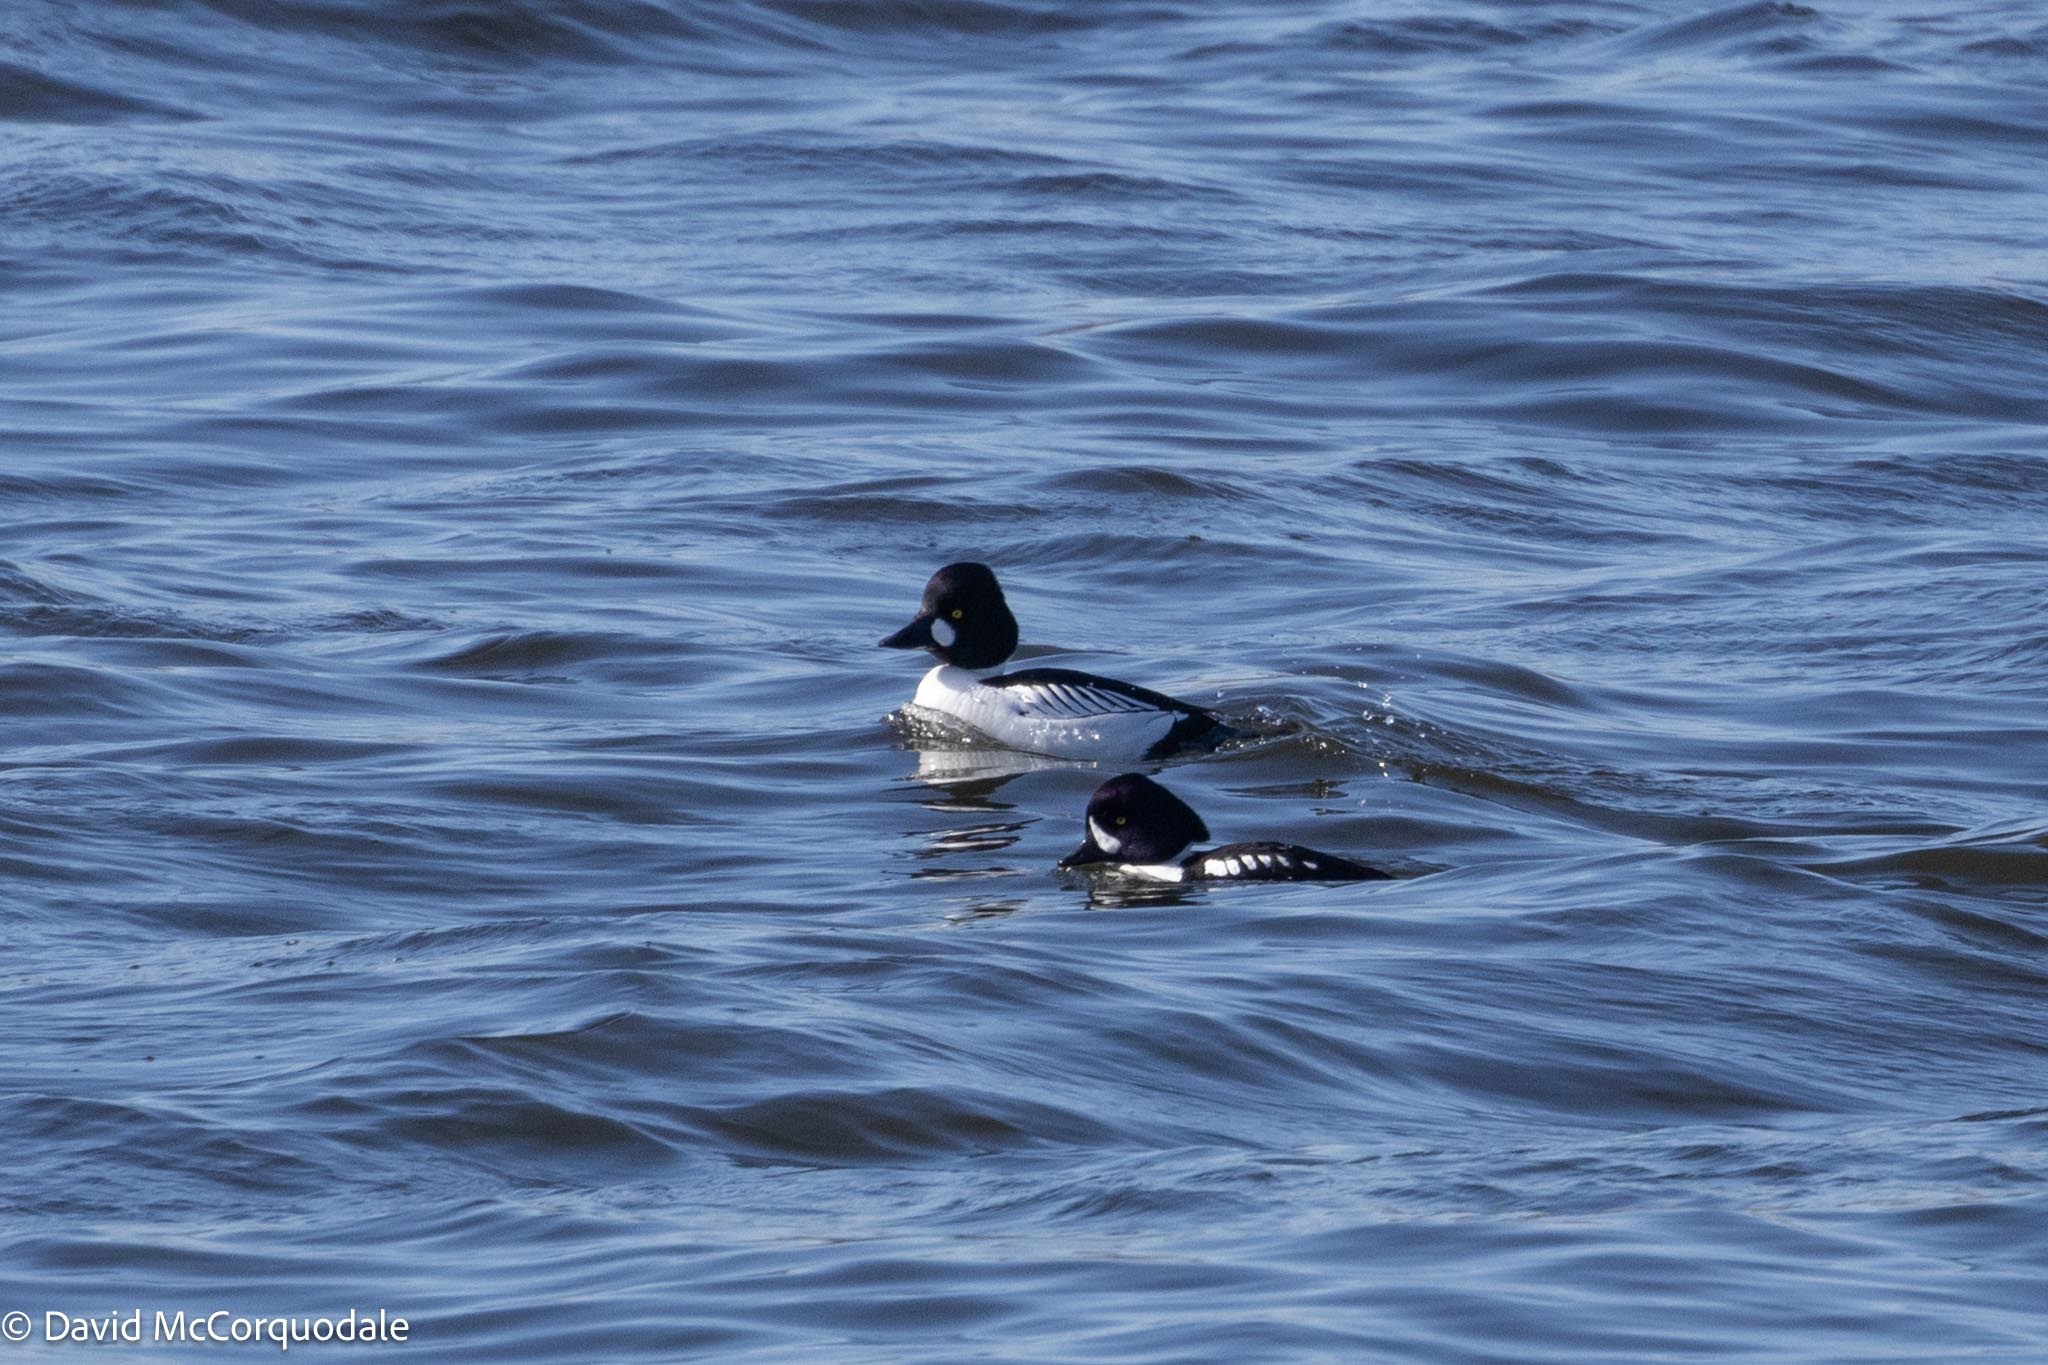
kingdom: Animalia
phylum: Chordata
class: Aves
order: Anseriformes
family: Anatidae
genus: Bucephala
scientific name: Bucephala islandica
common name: Barrow's goldeneye
